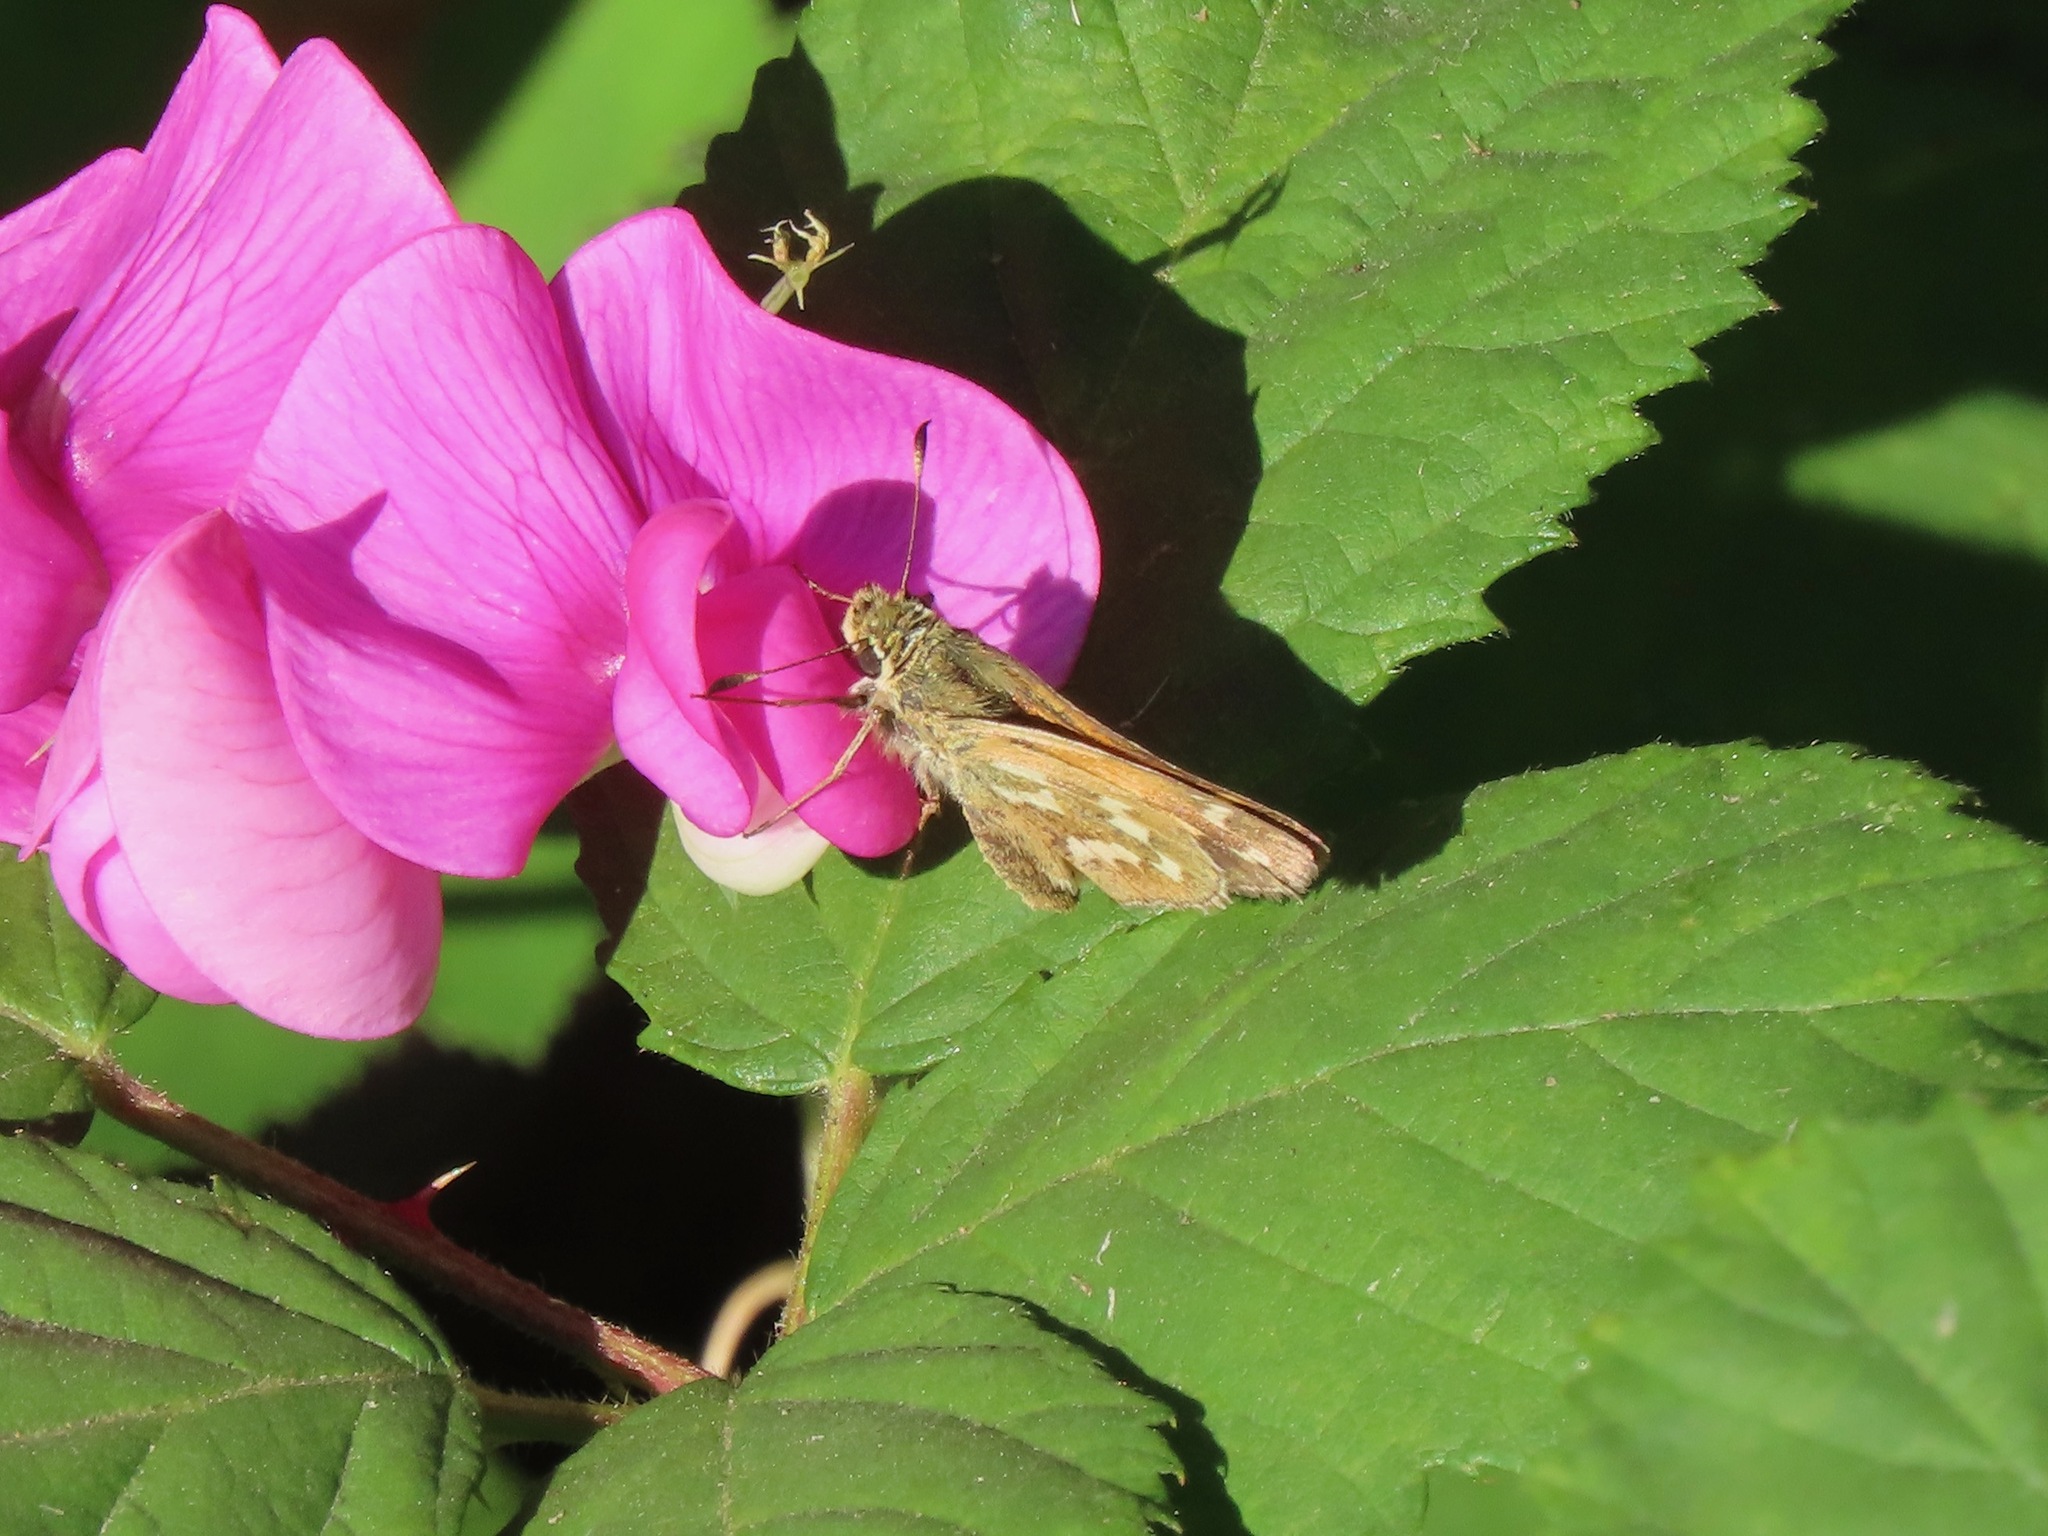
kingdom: Animalia
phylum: Arthropoda
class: Insecta
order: Lepidoptera
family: Hesperiidae
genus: Hesperia
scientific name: Hesperia comma
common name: Common branded skipper
